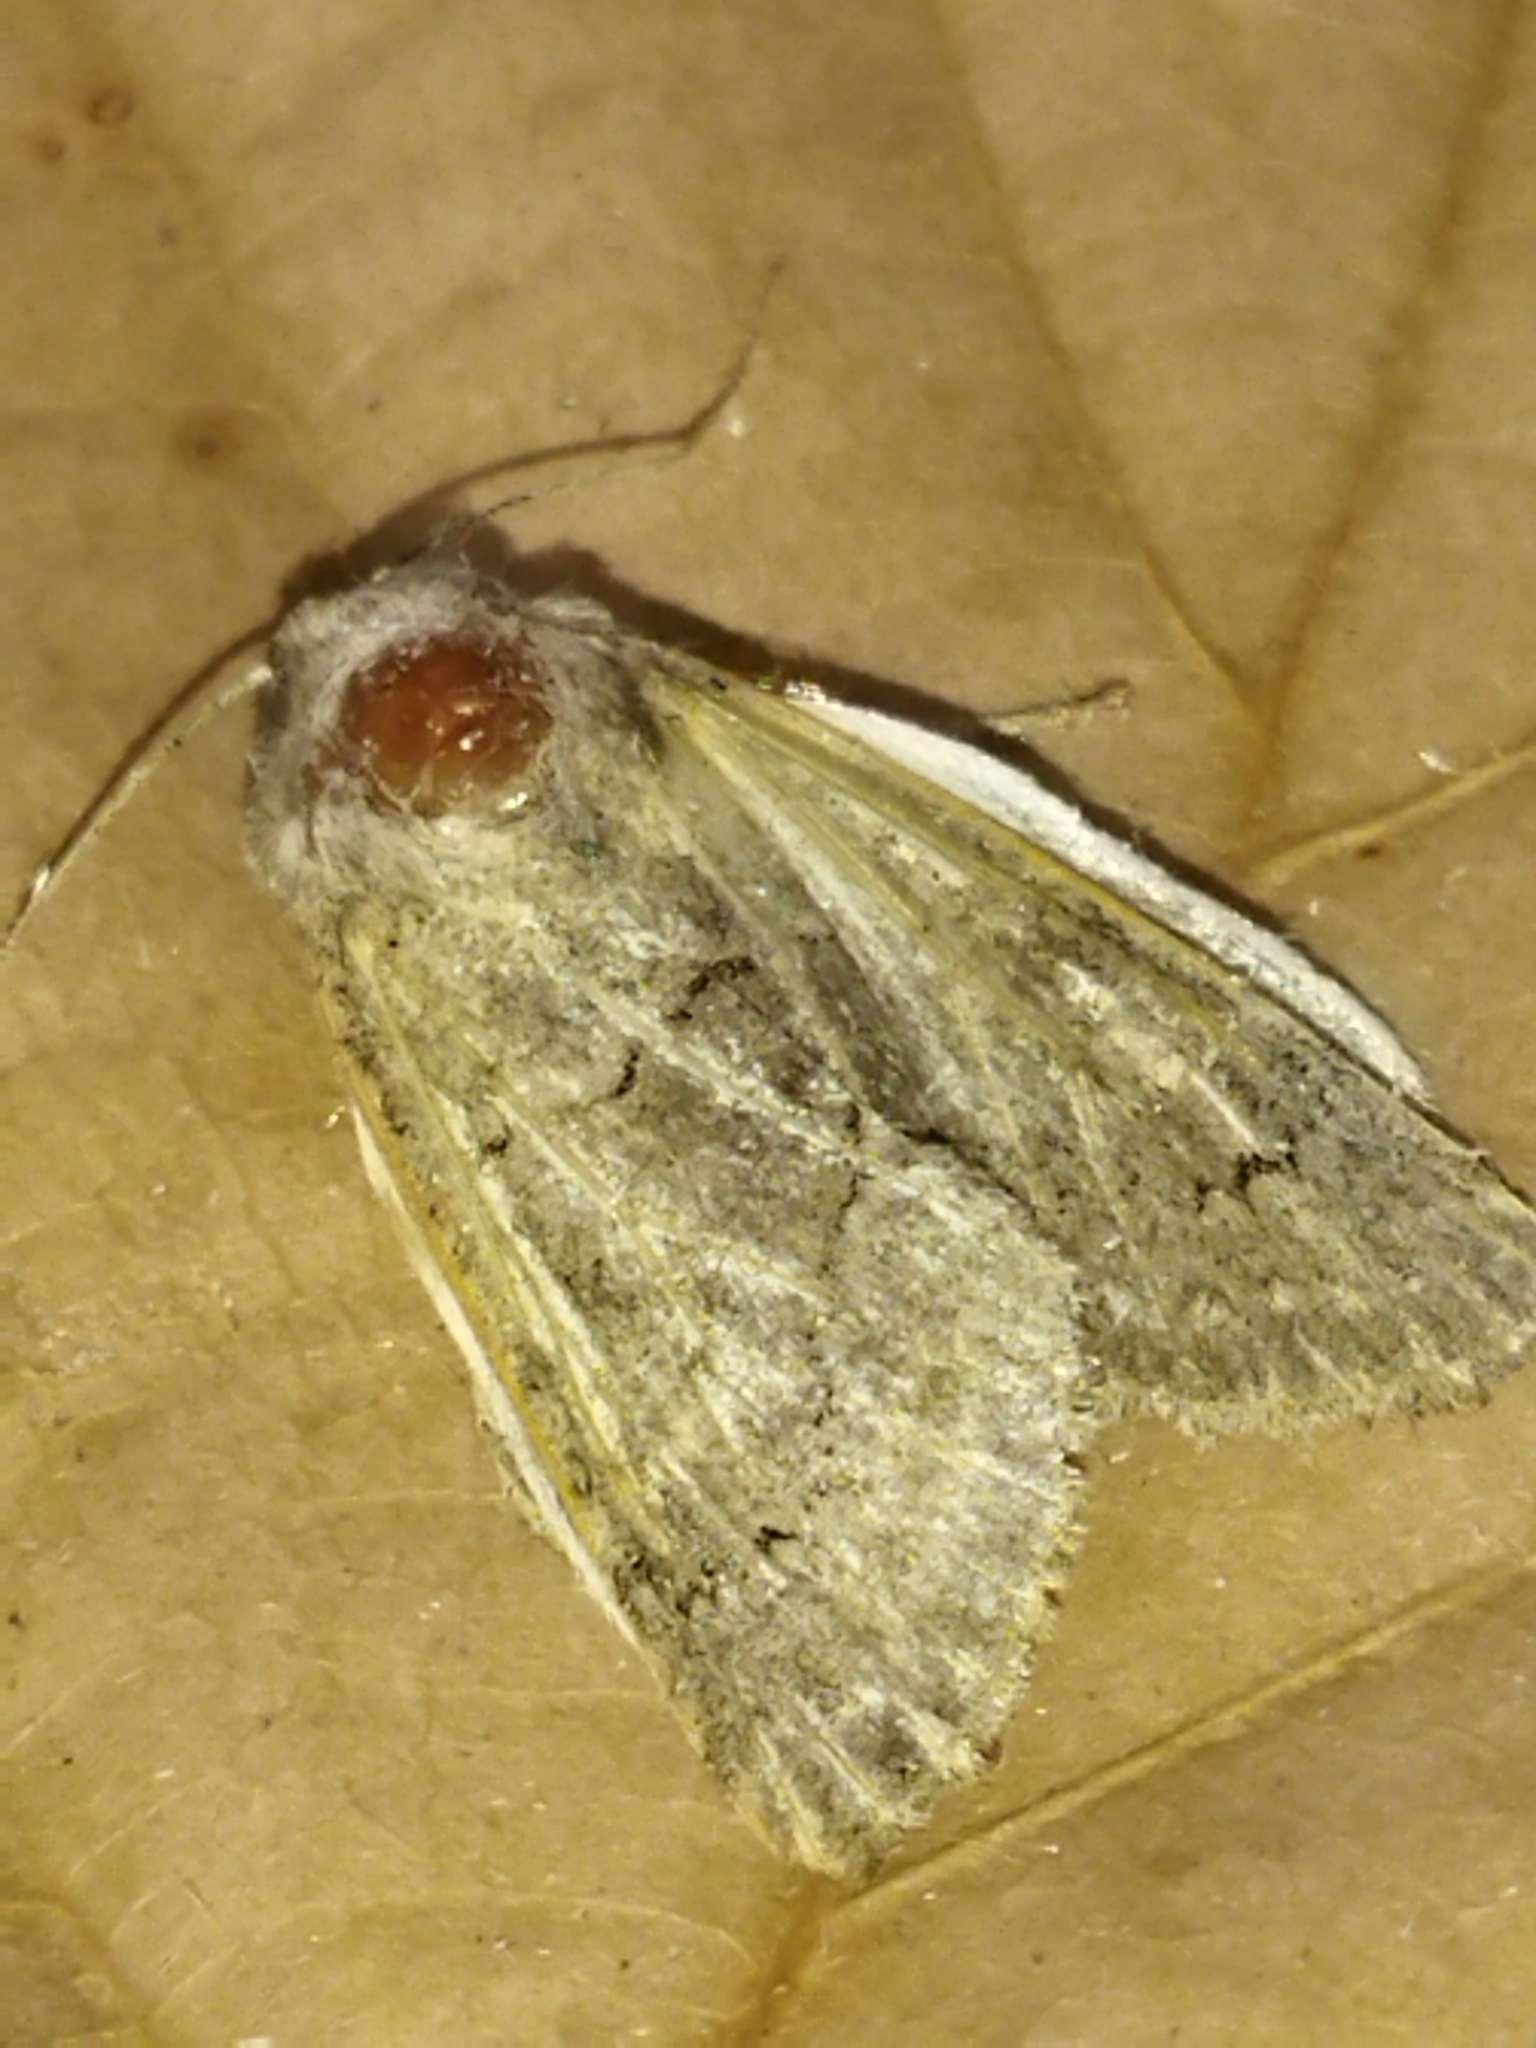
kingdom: Animalia
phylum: Arthropoda
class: Insecta
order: Lepidoptera
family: Noctuidae
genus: Episema
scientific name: Episema lederi
